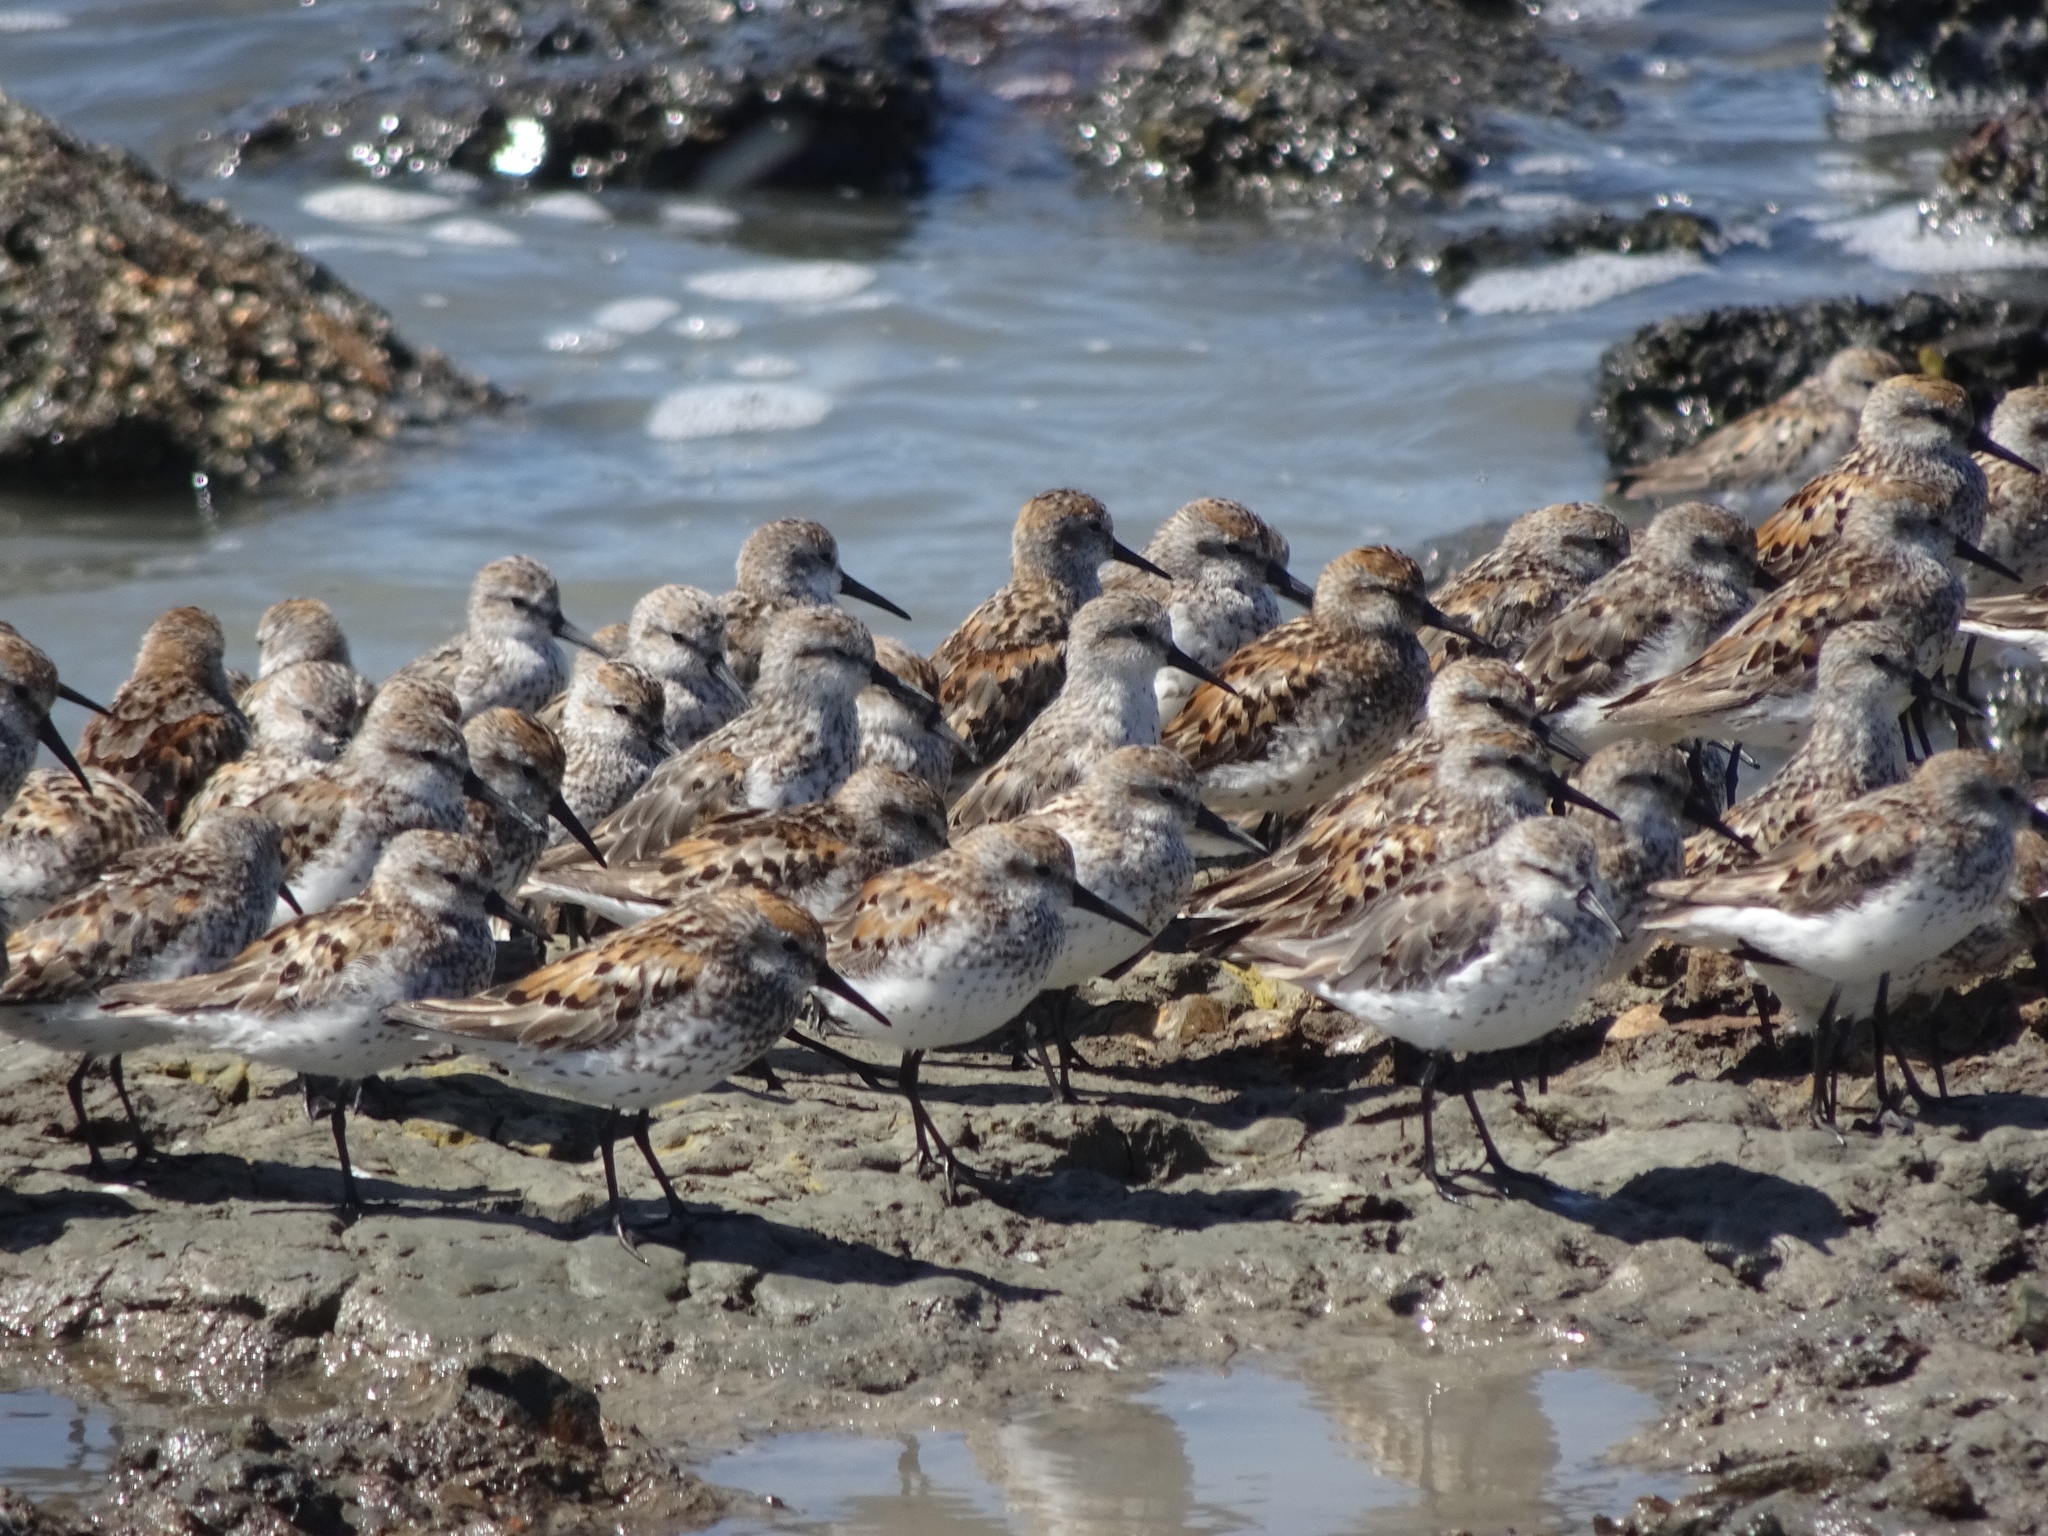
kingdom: Animalia
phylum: Chordata
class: Aves
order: Charadriiformes
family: Scolopacidae
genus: Calidris
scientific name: Calidris mauri
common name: Western sandpiper
